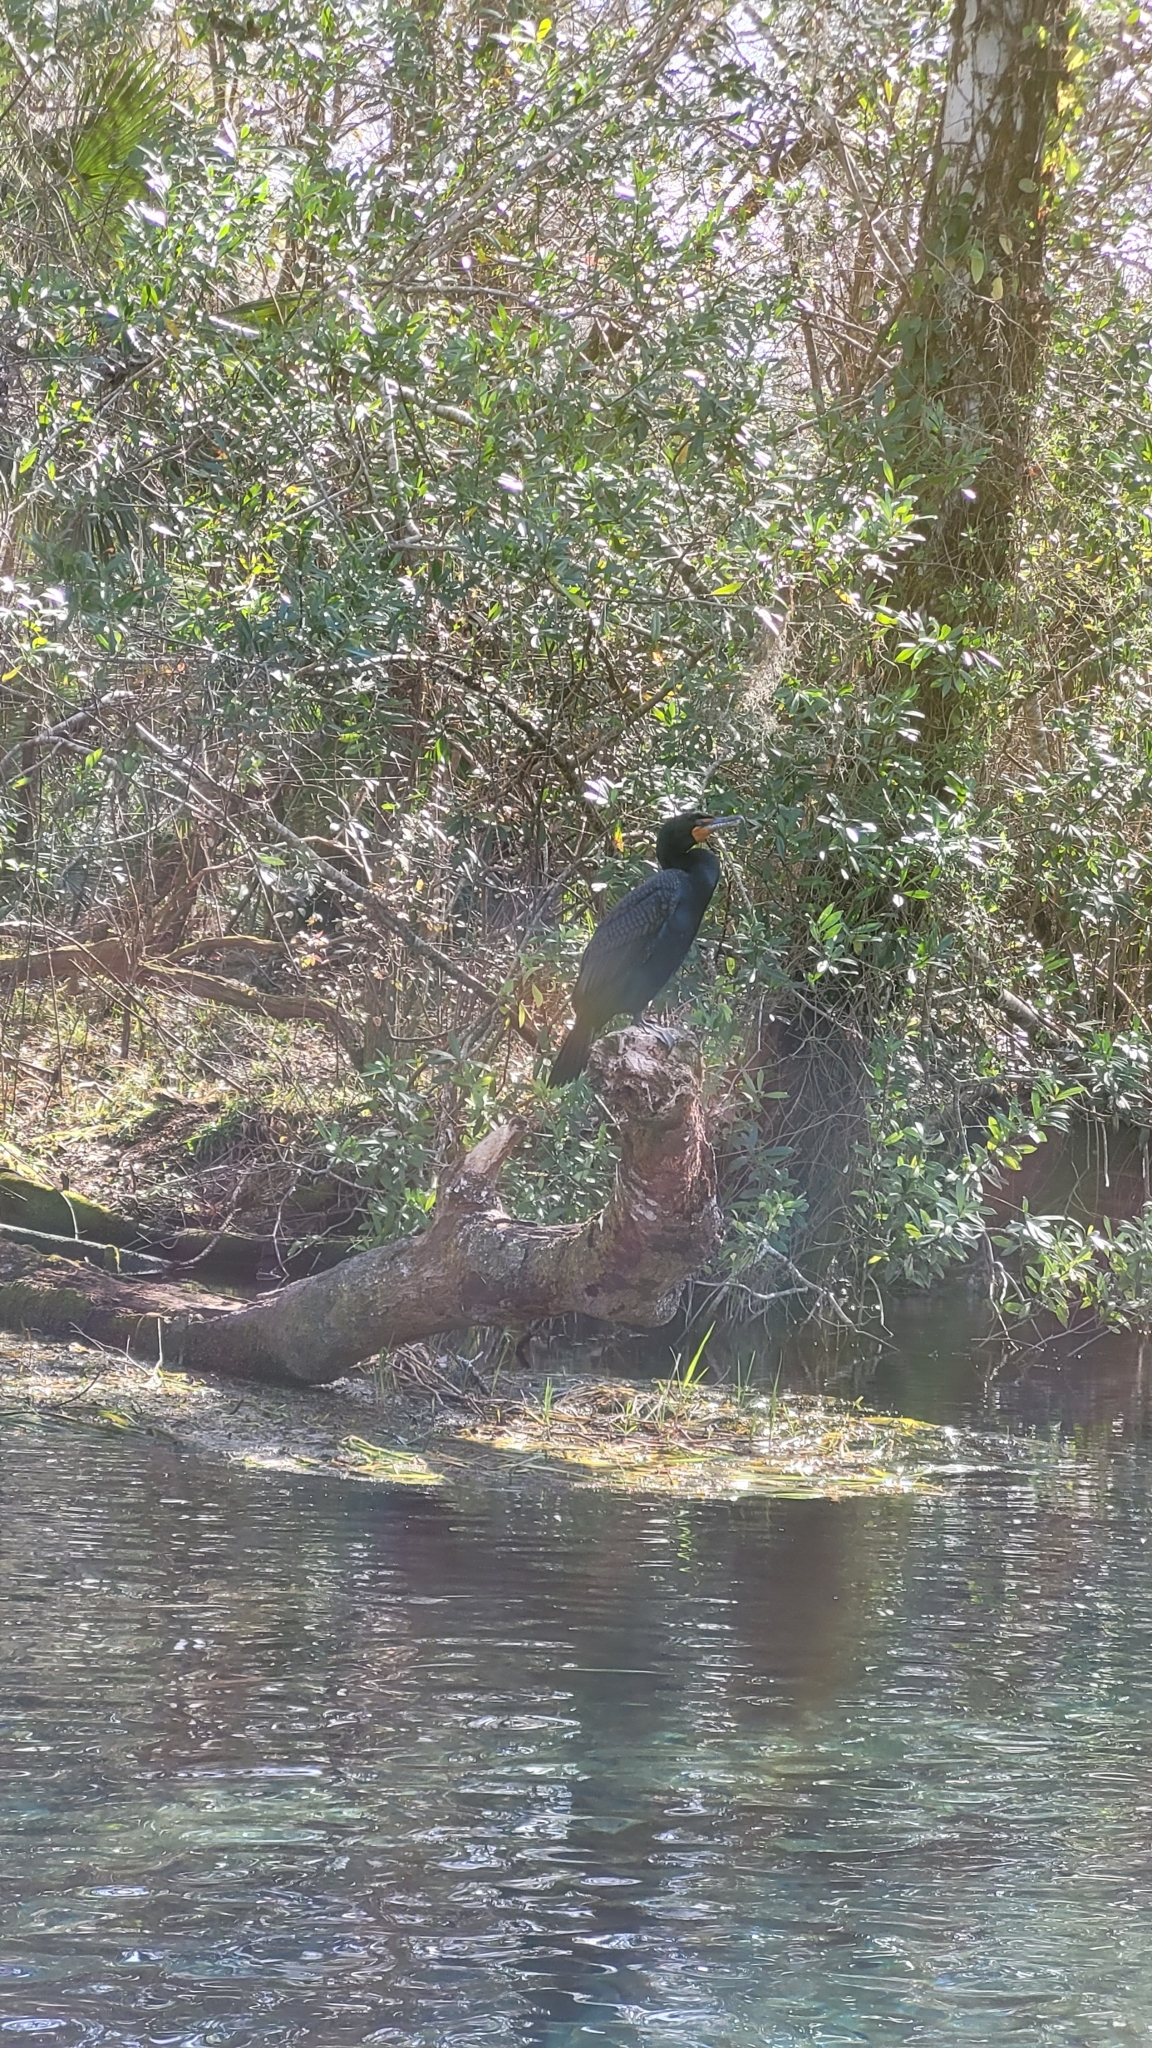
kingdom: Animalia
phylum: Chordata
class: Aves
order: Suliformes
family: Phalacrocoracidae
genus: Phalacrocorax
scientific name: Phalacrocorax auritus
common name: Double-crested cormorant
